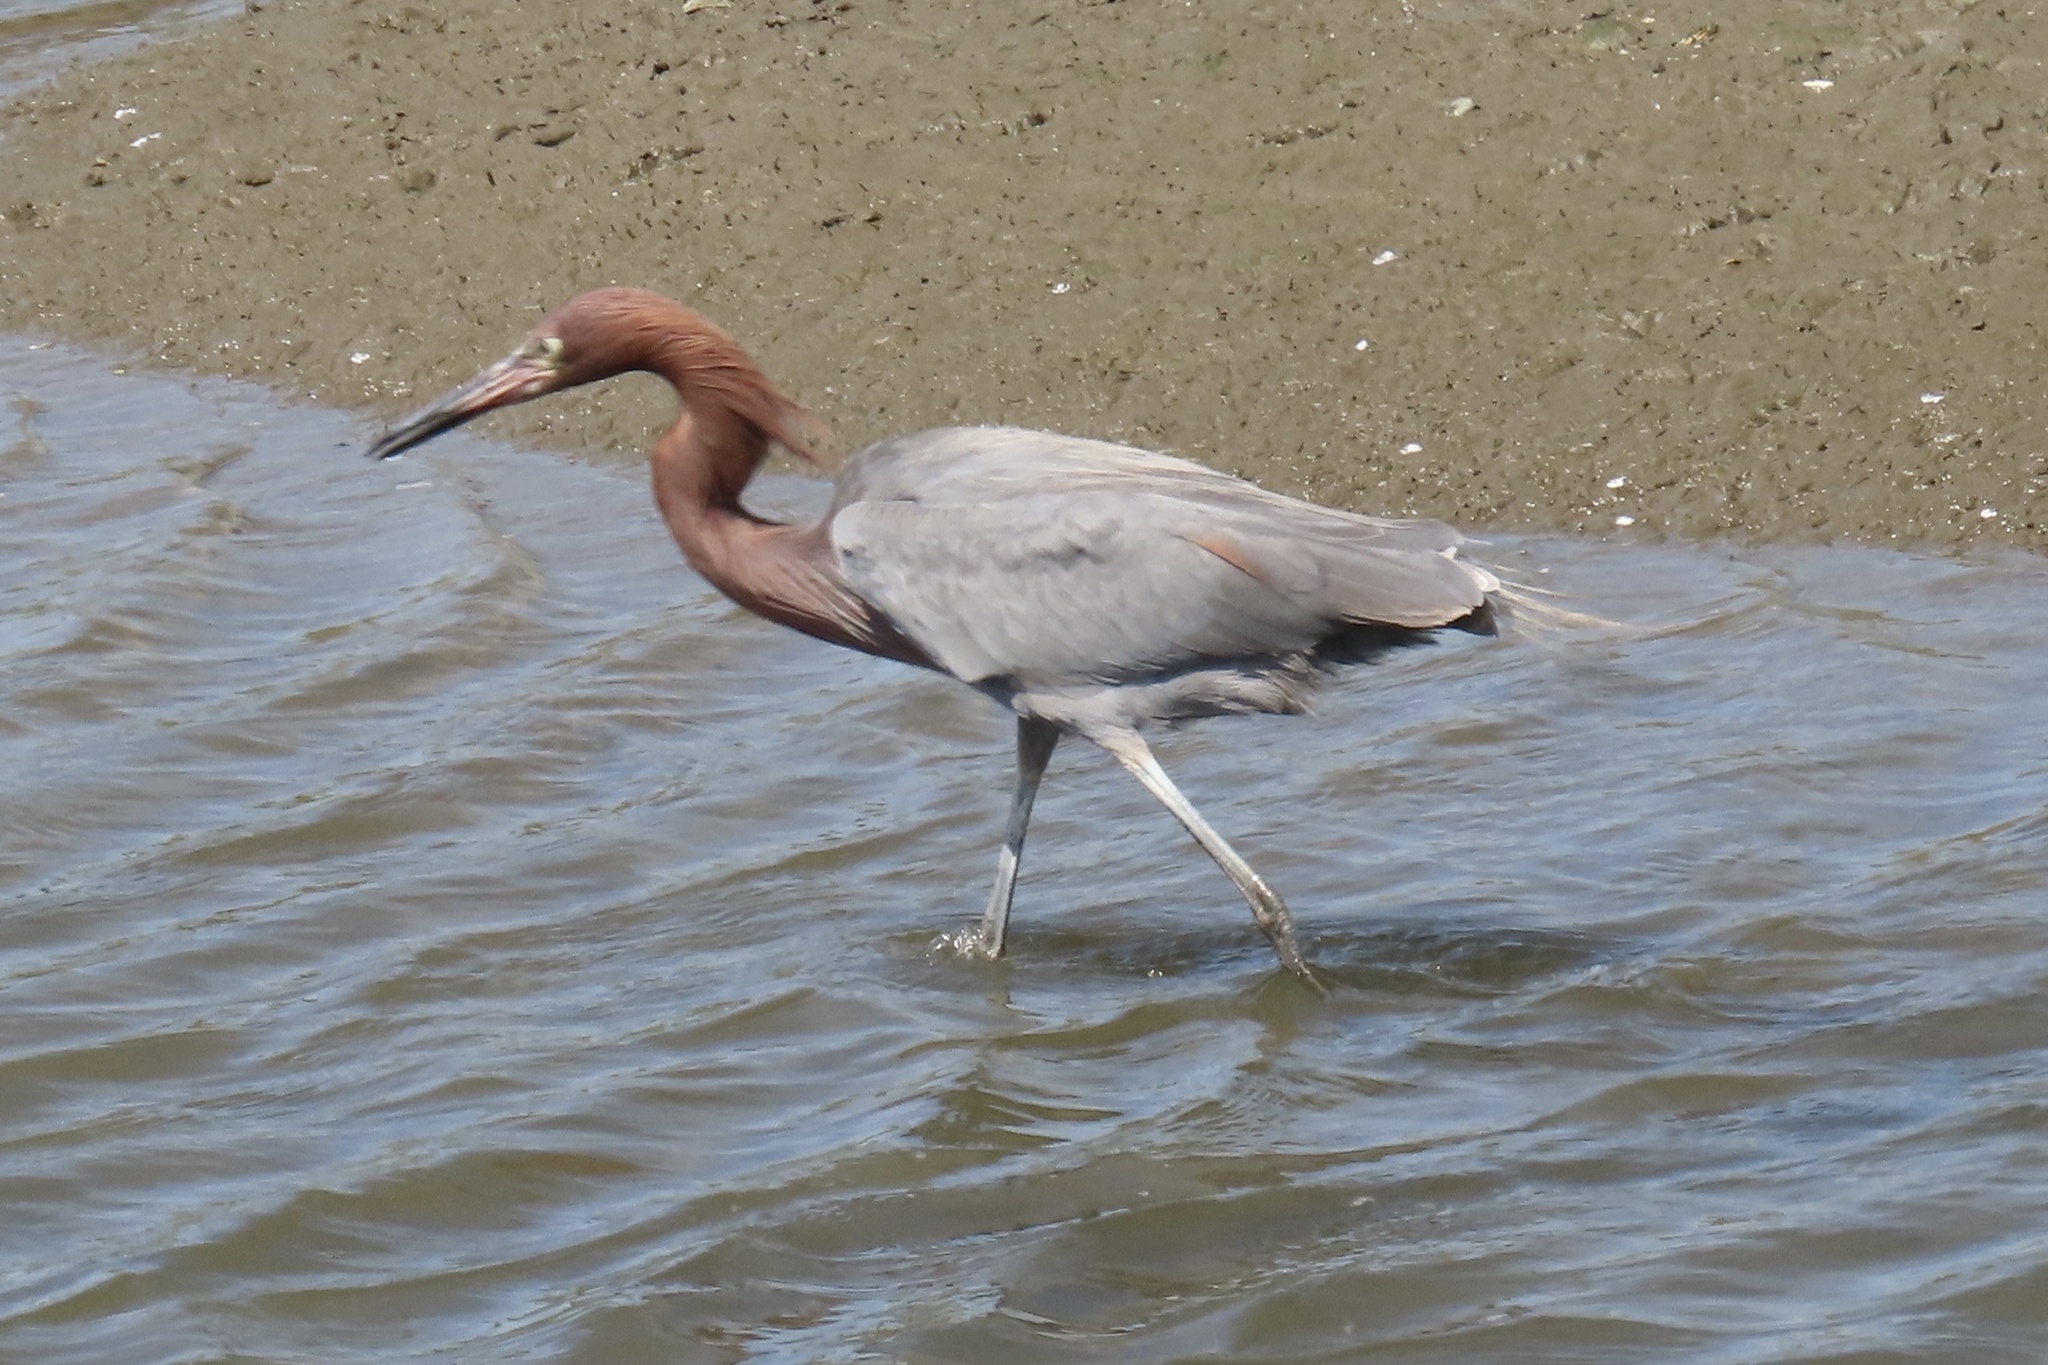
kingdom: Animalia
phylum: Chordata
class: Aves
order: Pelecaniformes
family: Ardeidae
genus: Egretta
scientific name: Egretta rufescens
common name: Reddish egret
